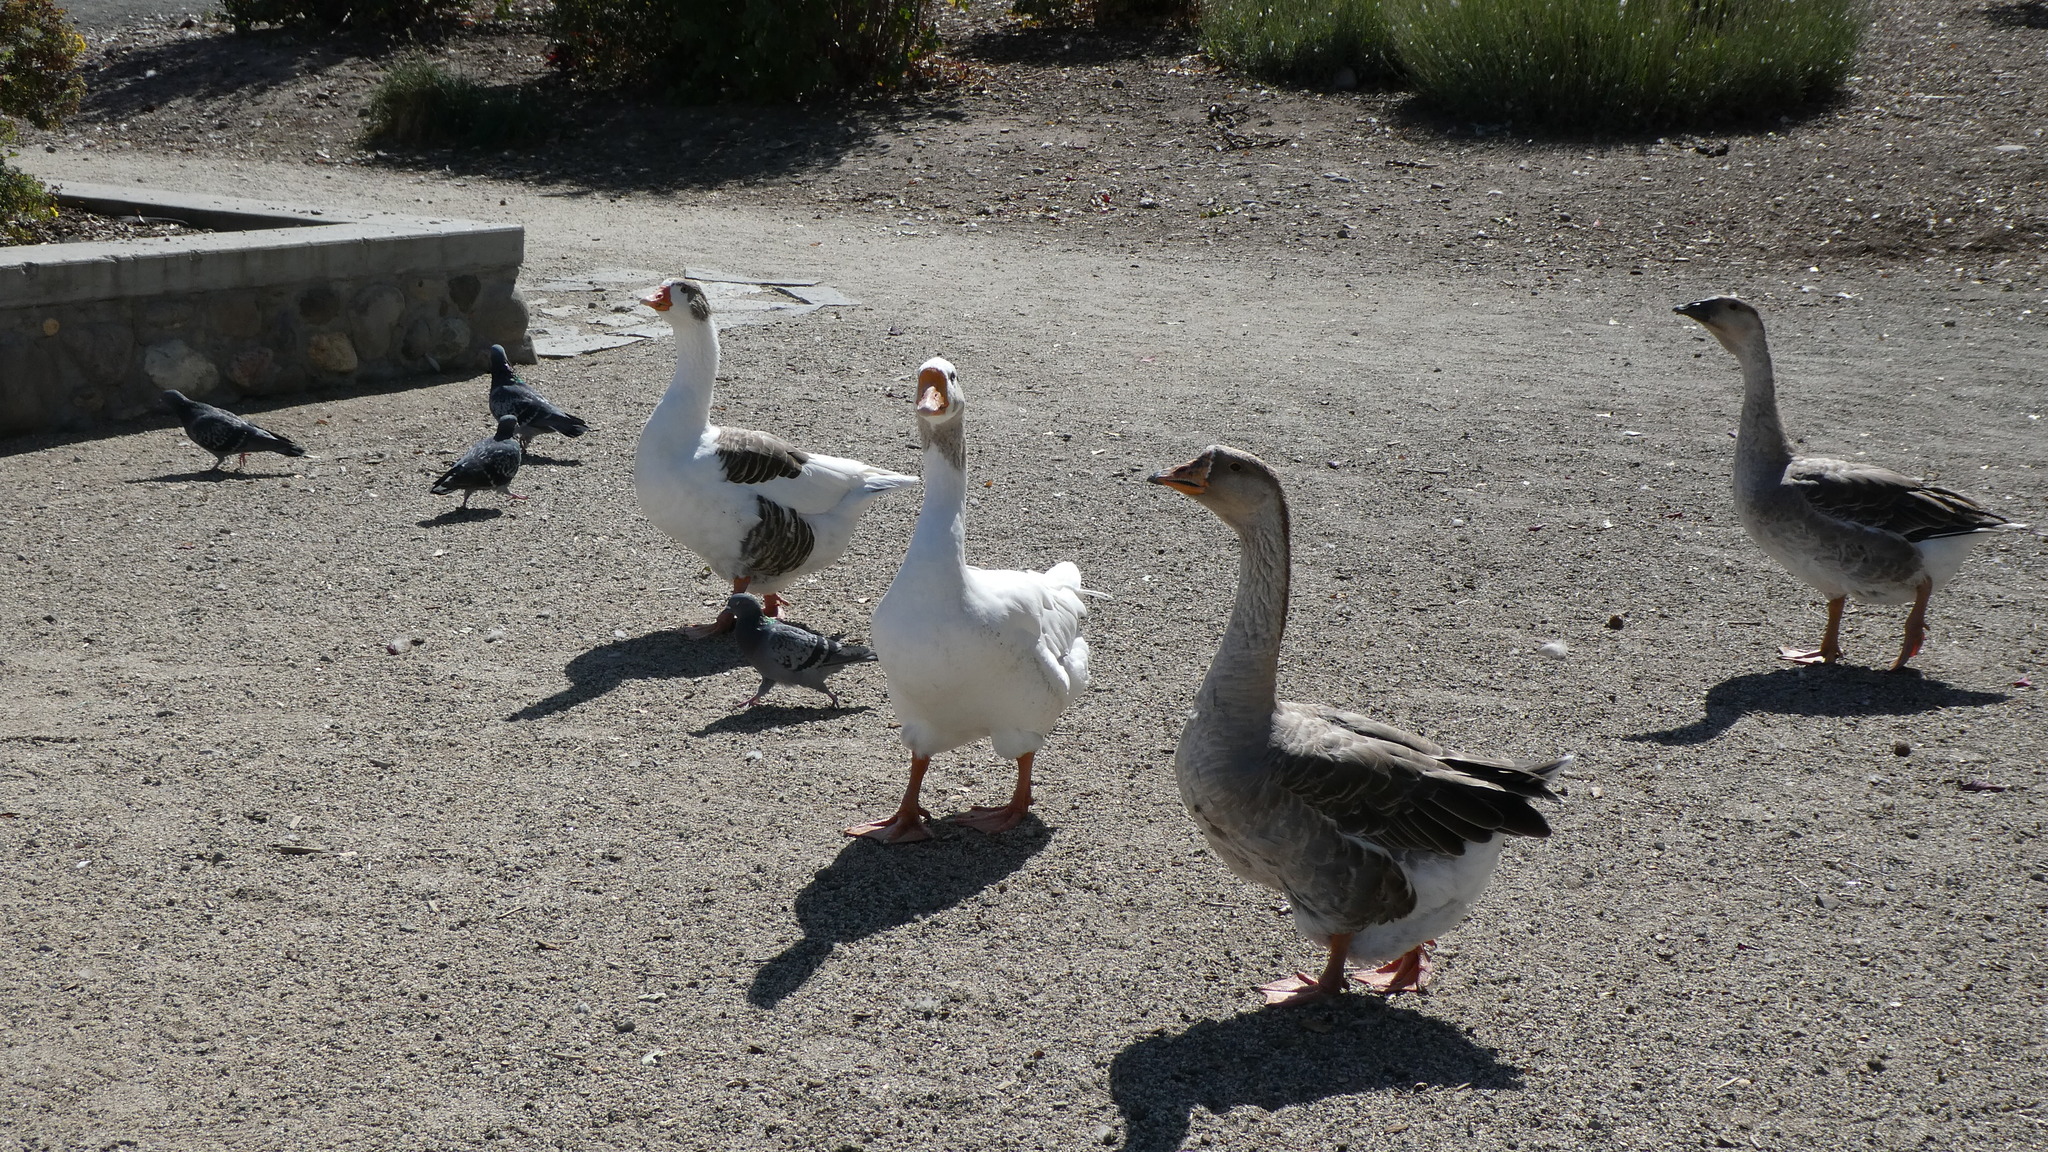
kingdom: Animalia
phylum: Chordata
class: Aves
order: Anseriformes
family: Anatidae
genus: Anser
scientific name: Anser
